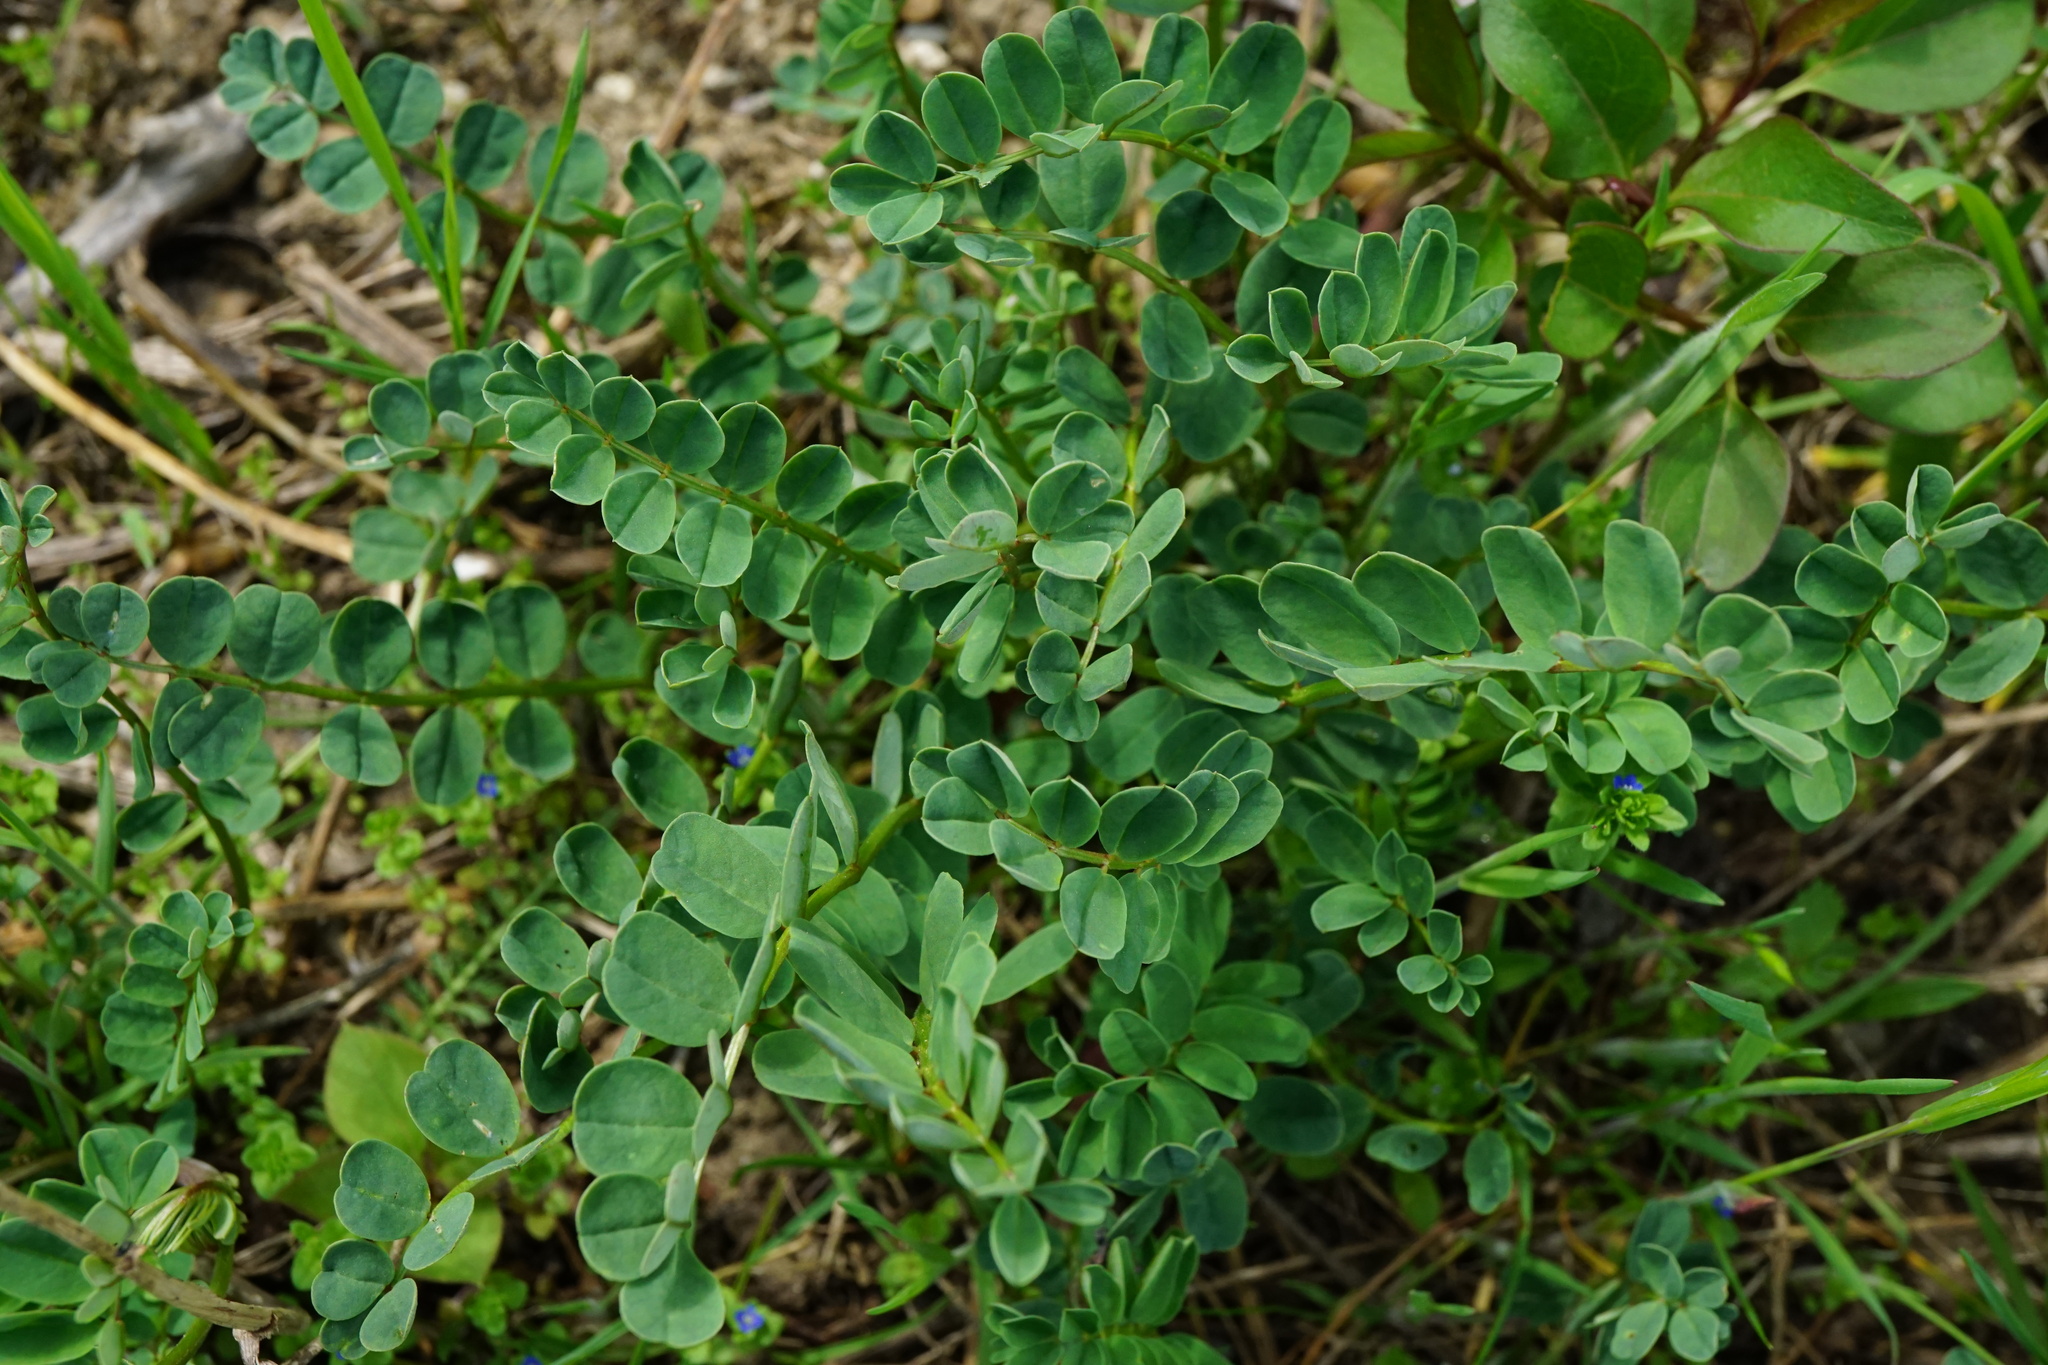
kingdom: Plantae
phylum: Tracheophyta
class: Magnoliopsida
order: Fabales
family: Fabaceae
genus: Coronilla
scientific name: Coronilla varia
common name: Crownvetch
